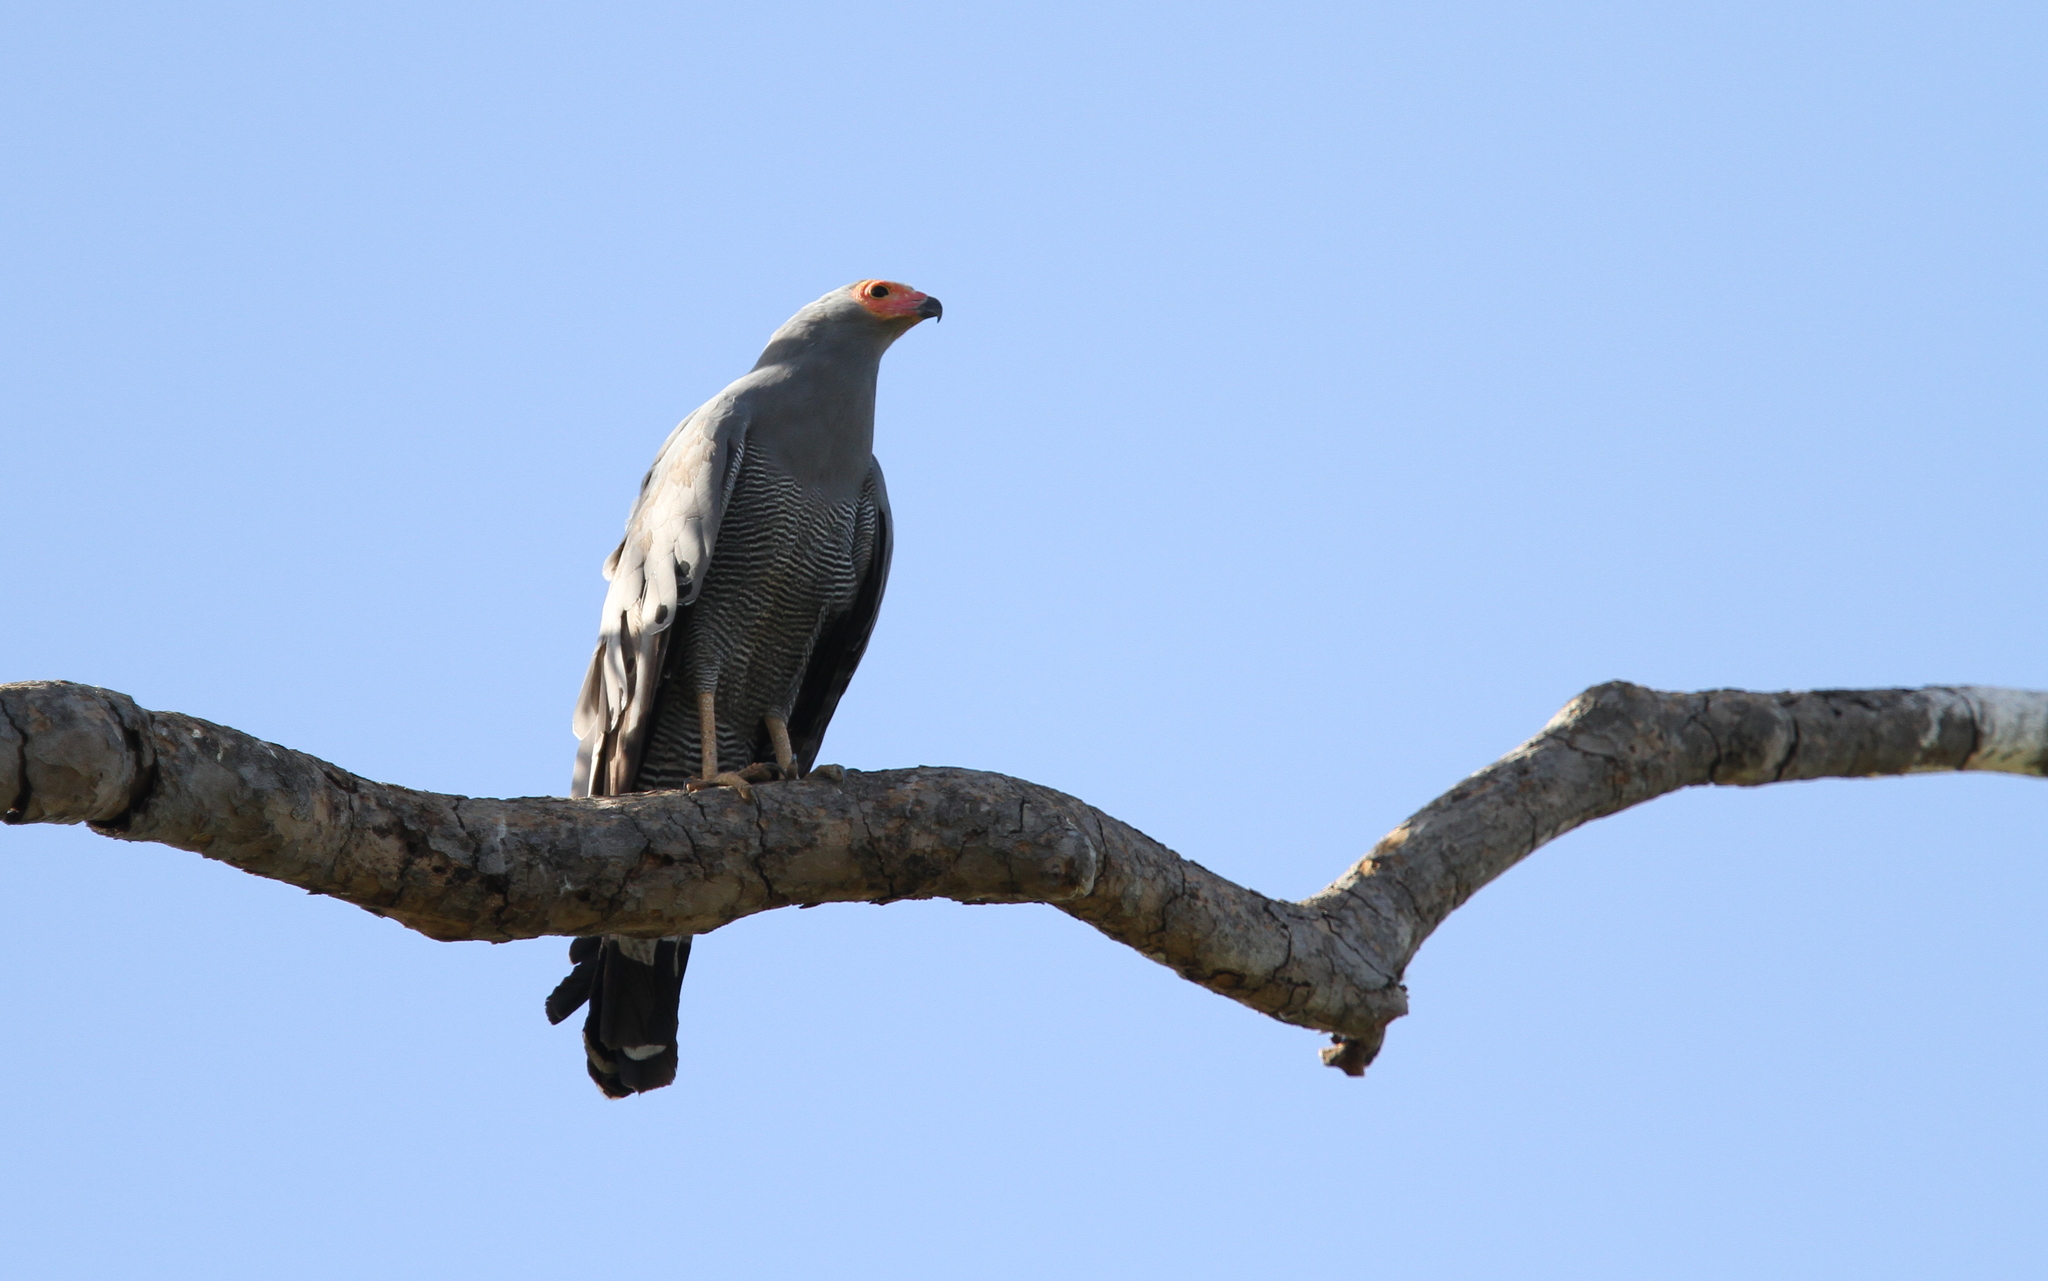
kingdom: Animalia
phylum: Chordata
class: Aves
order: Accipitriformes
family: Accipitridae
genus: Polyboroides
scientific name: Polyboroides typus
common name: African harrier-hawk
